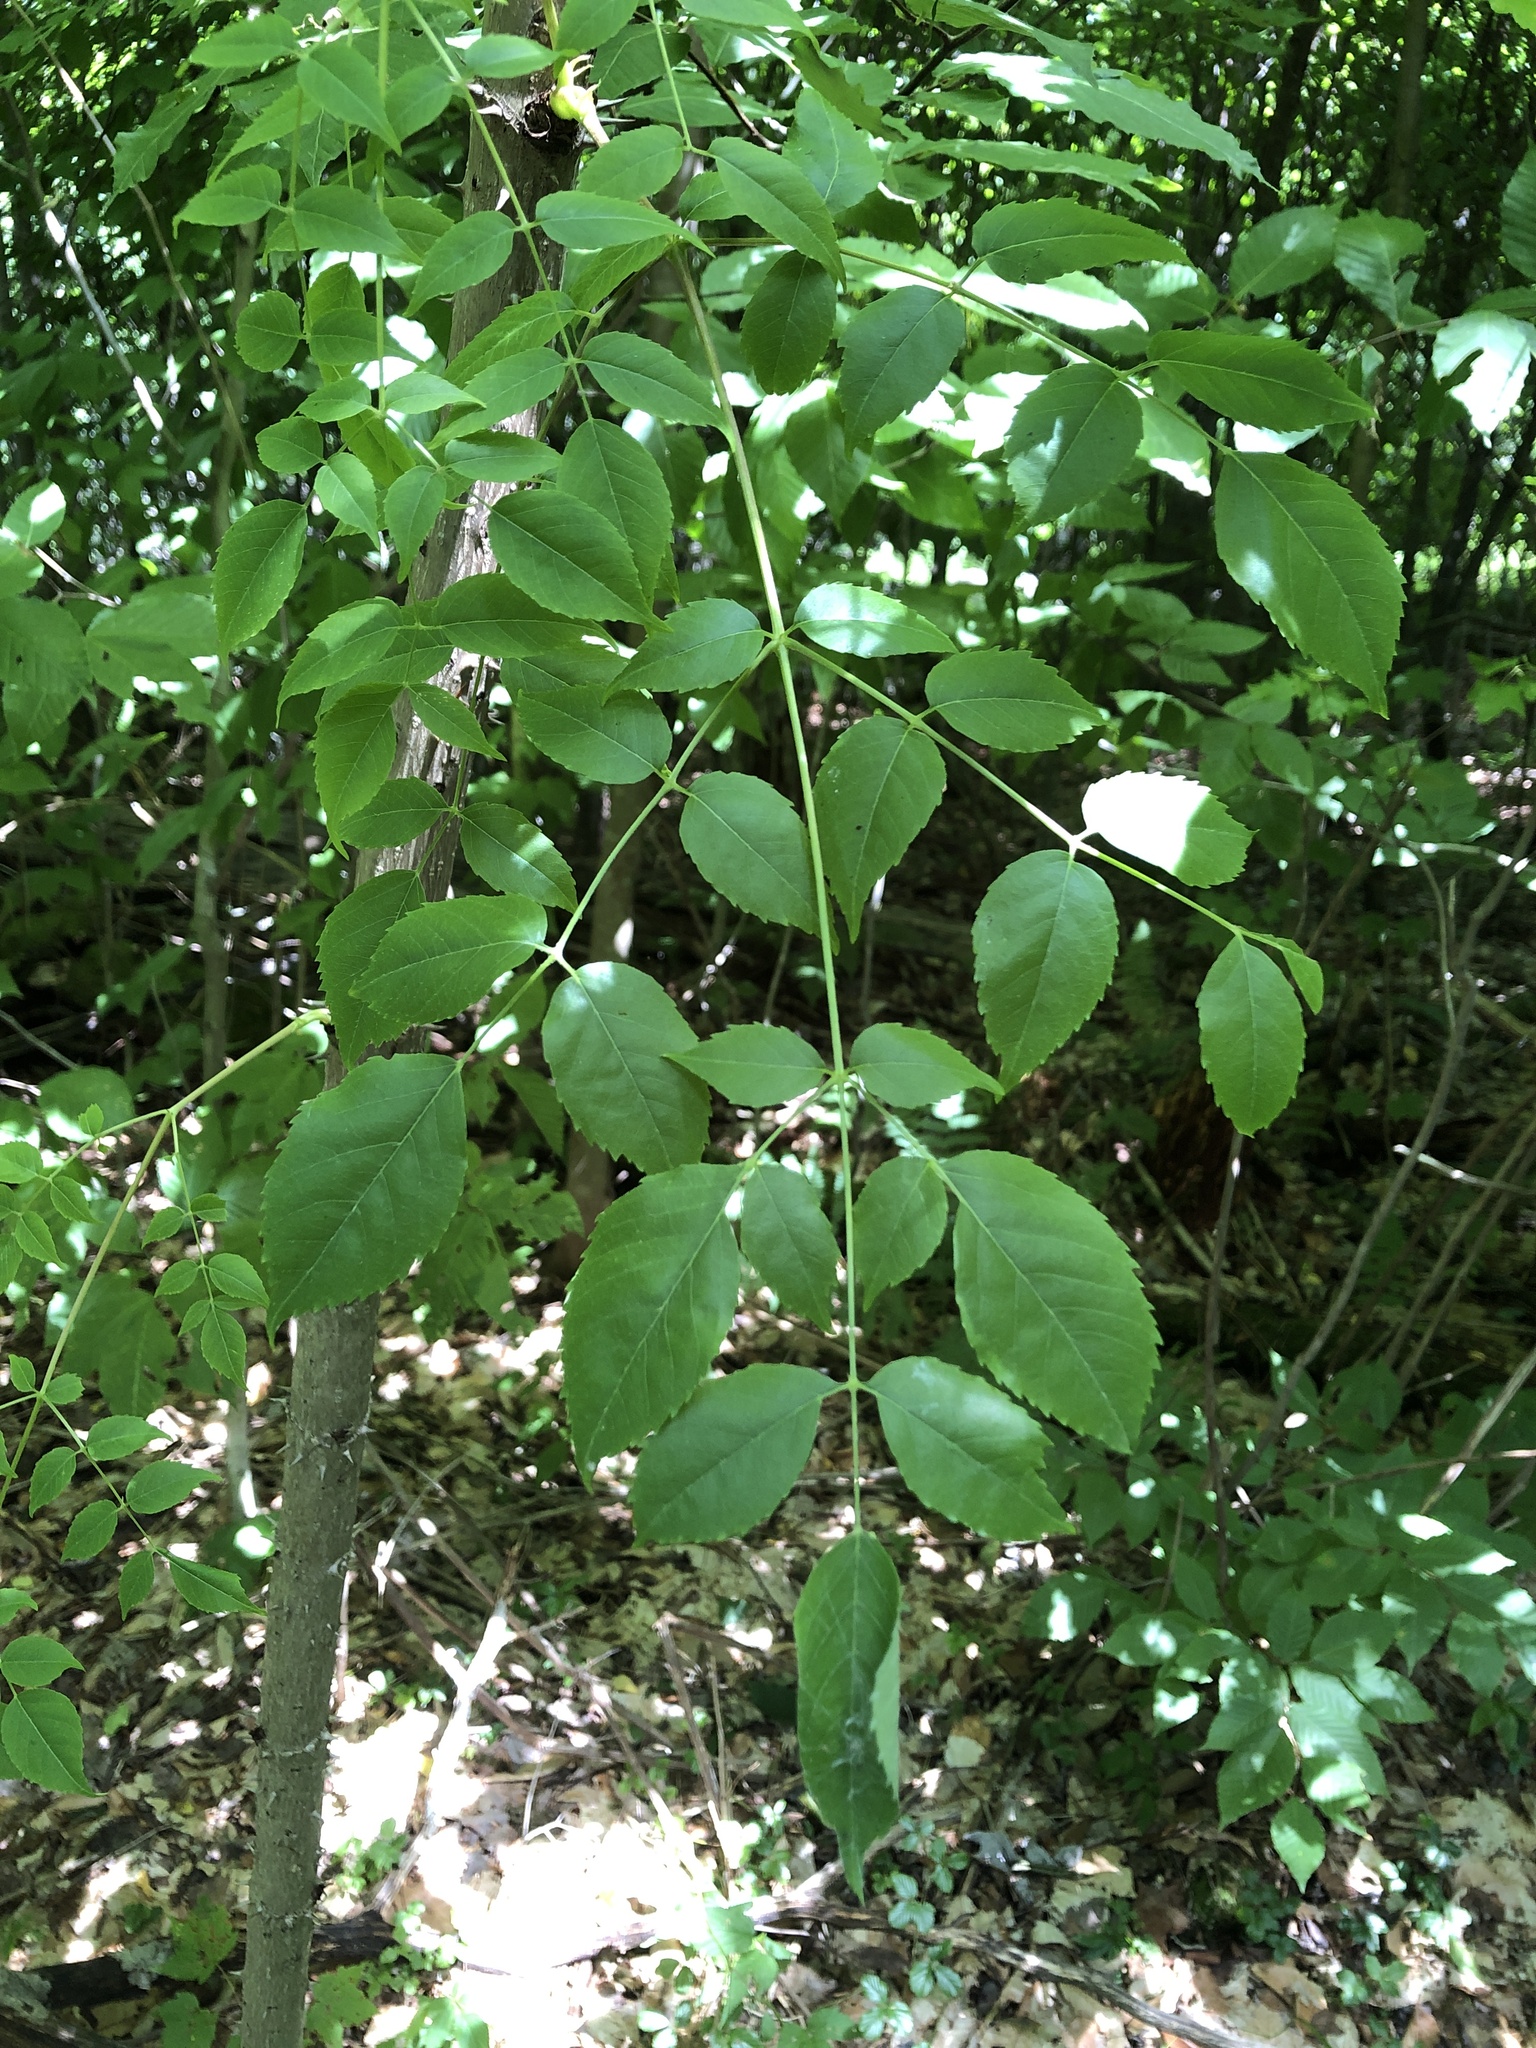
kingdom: Plantae
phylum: Tracheophyta
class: Magnoliopsida
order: Apiales
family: Araliaceae
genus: Aralia
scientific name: Aralia spinosa
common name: Hercules'-club
